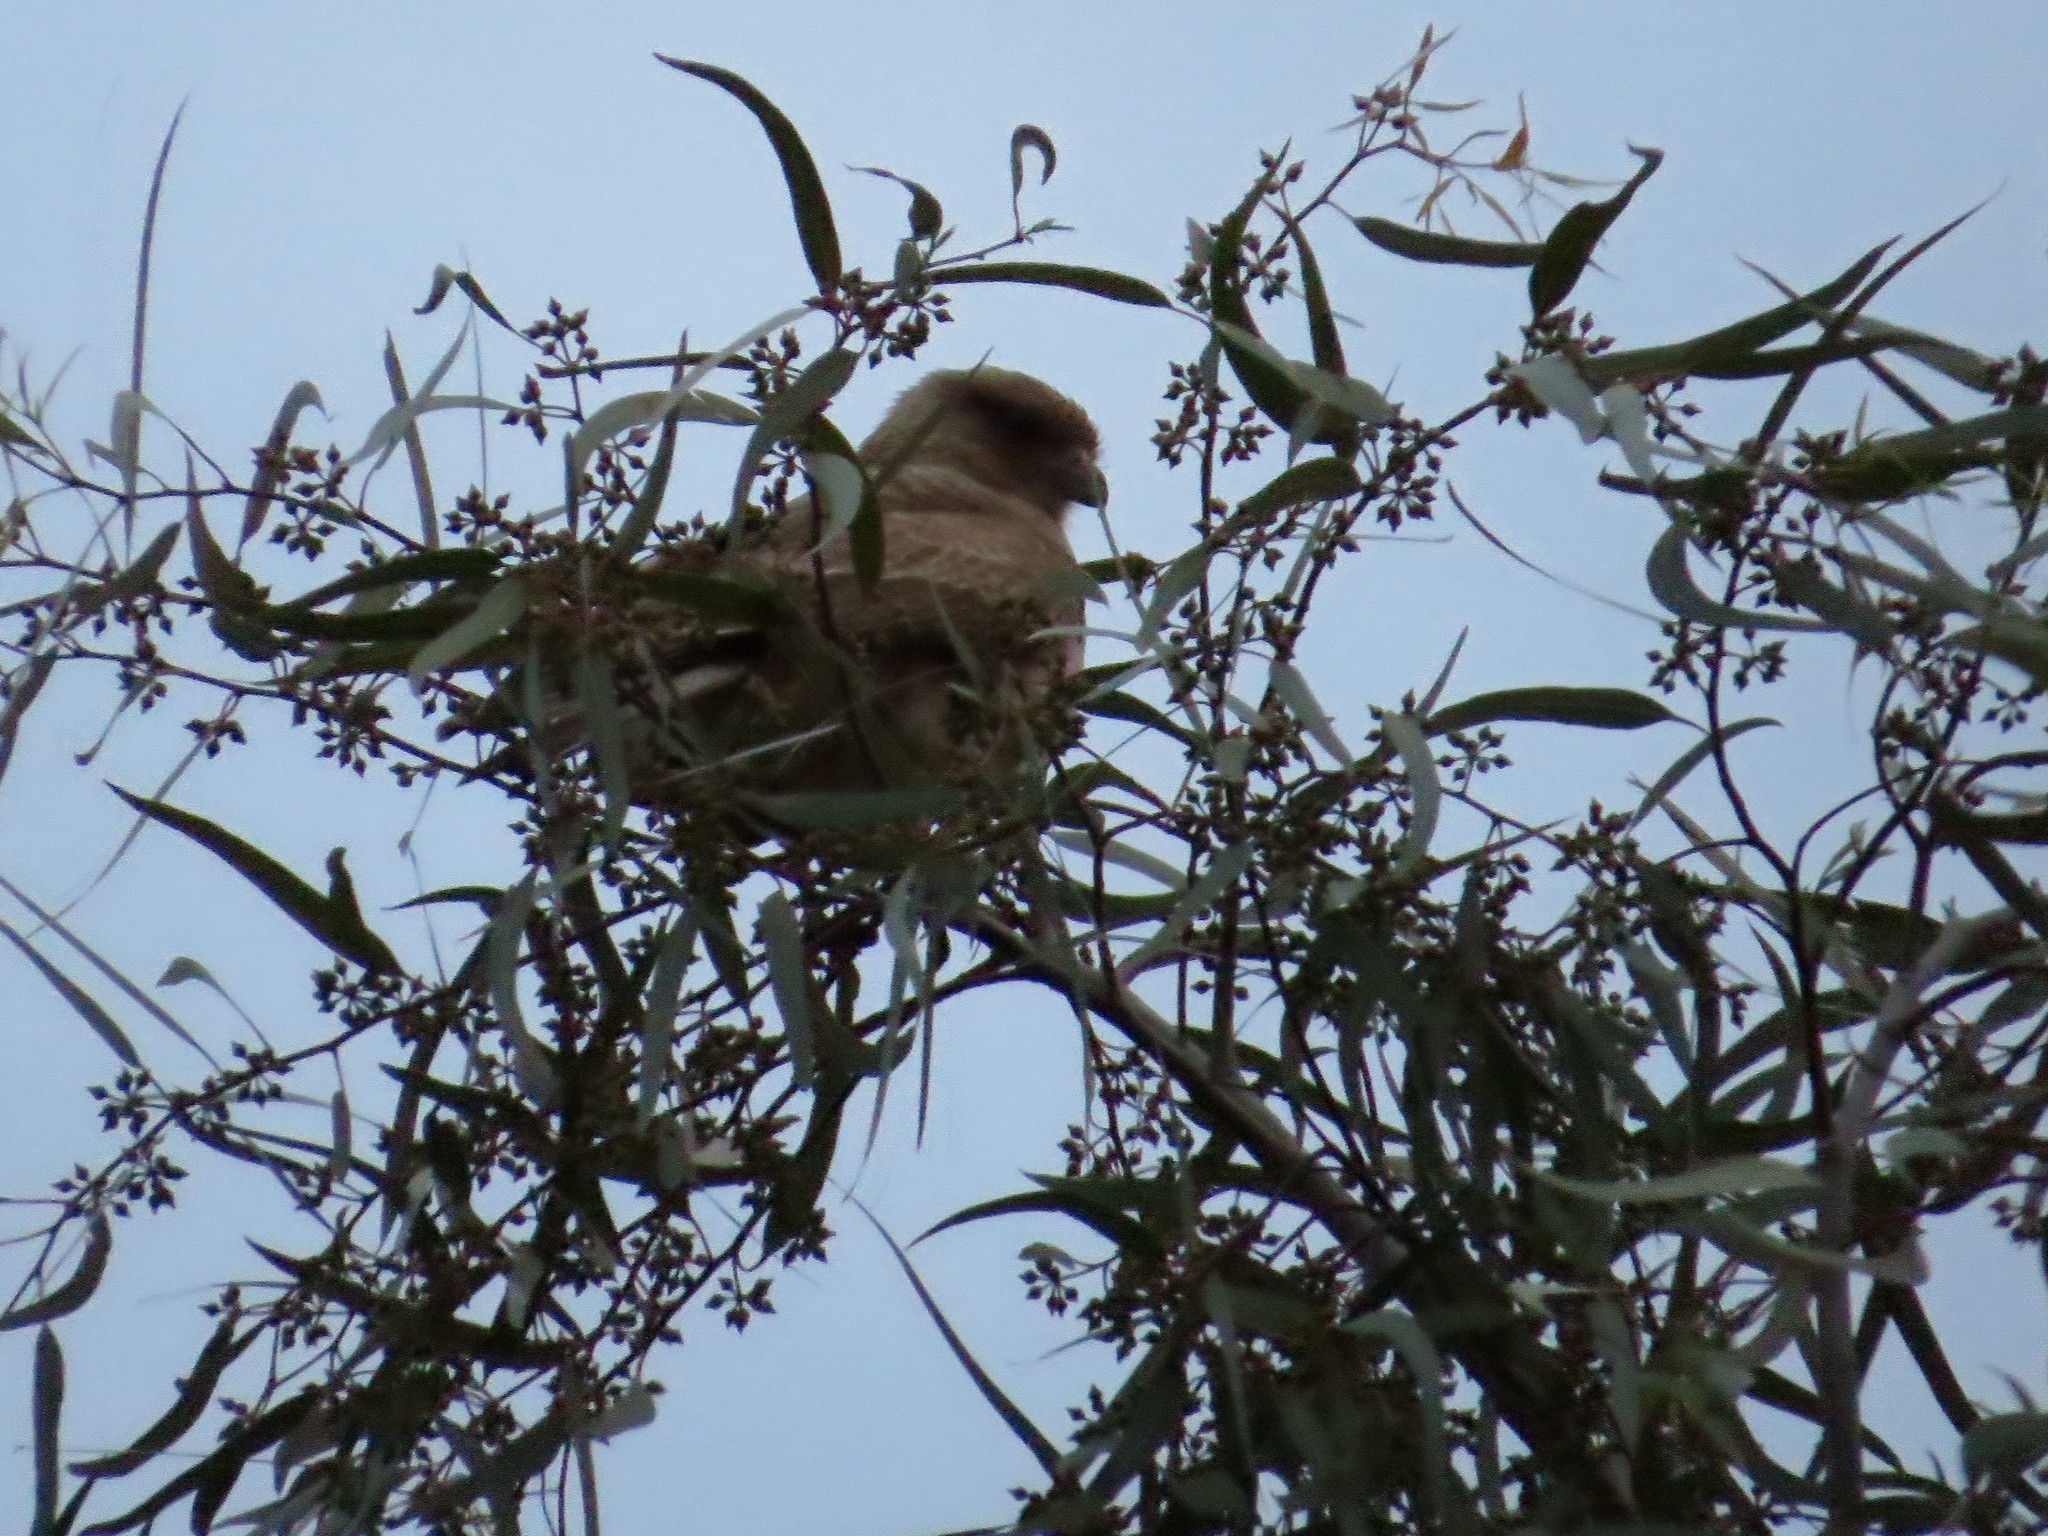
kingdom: Animalia
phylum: Chordata
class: Aves
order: Falconiformes
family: Falconidae
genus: Daptrius
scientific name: Daptrius
